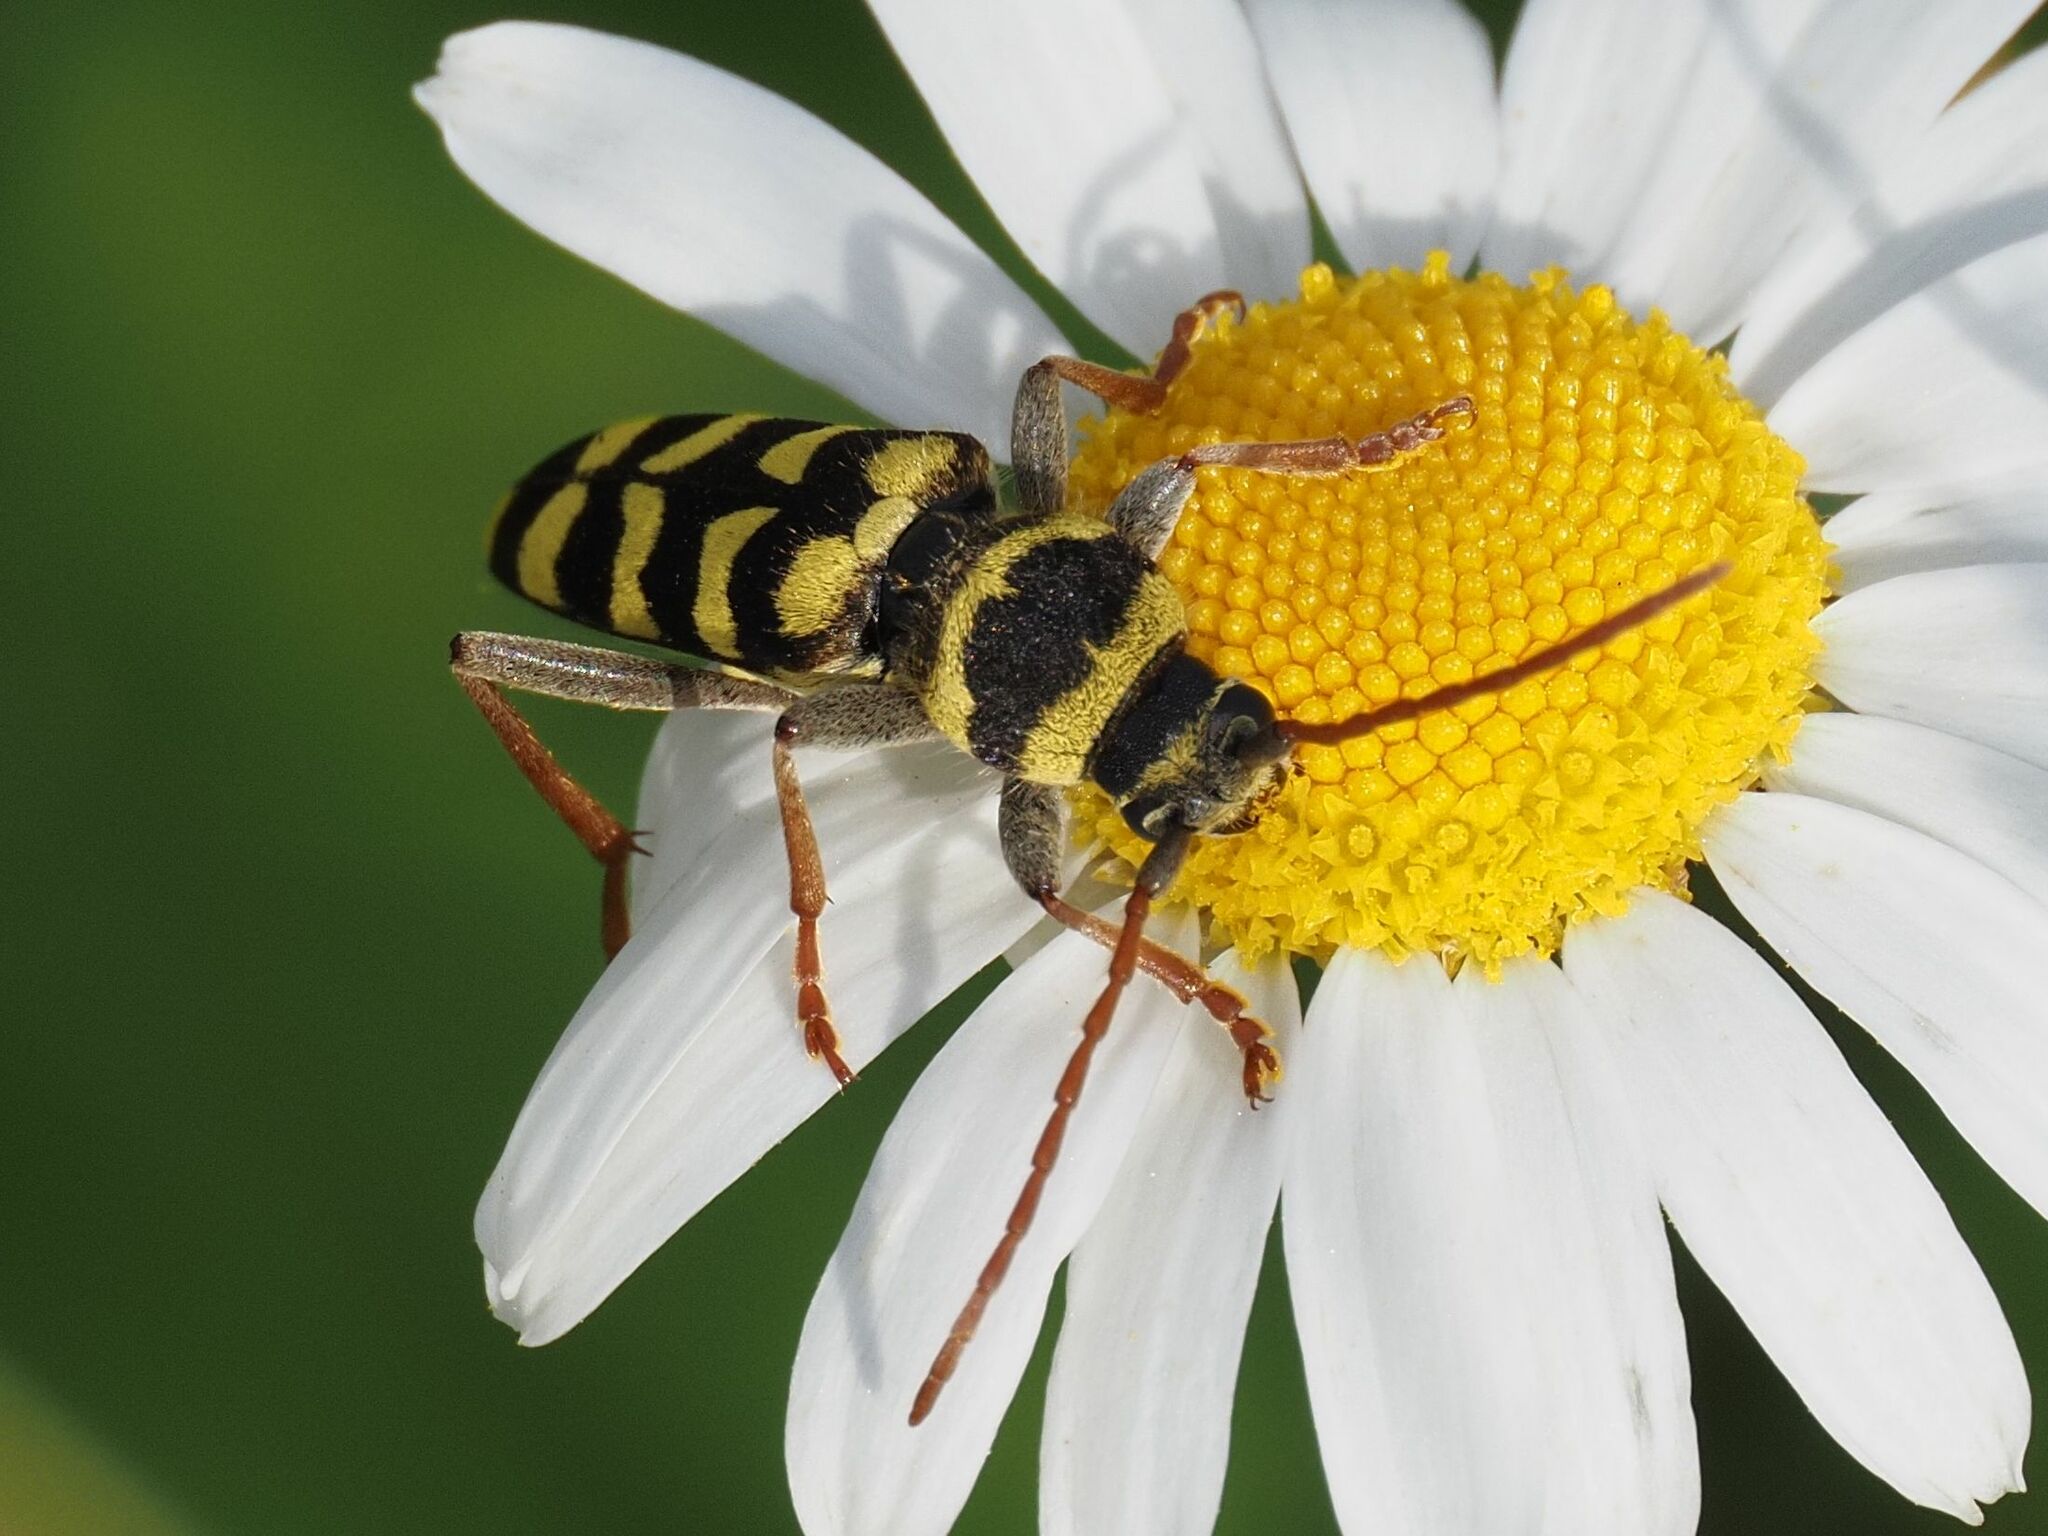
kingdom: Animalia
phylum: Arthropoda
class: Insecta
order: Coleoptera
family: Cerambycidae
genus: Plagionotus
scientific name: Plagionotus floralis
